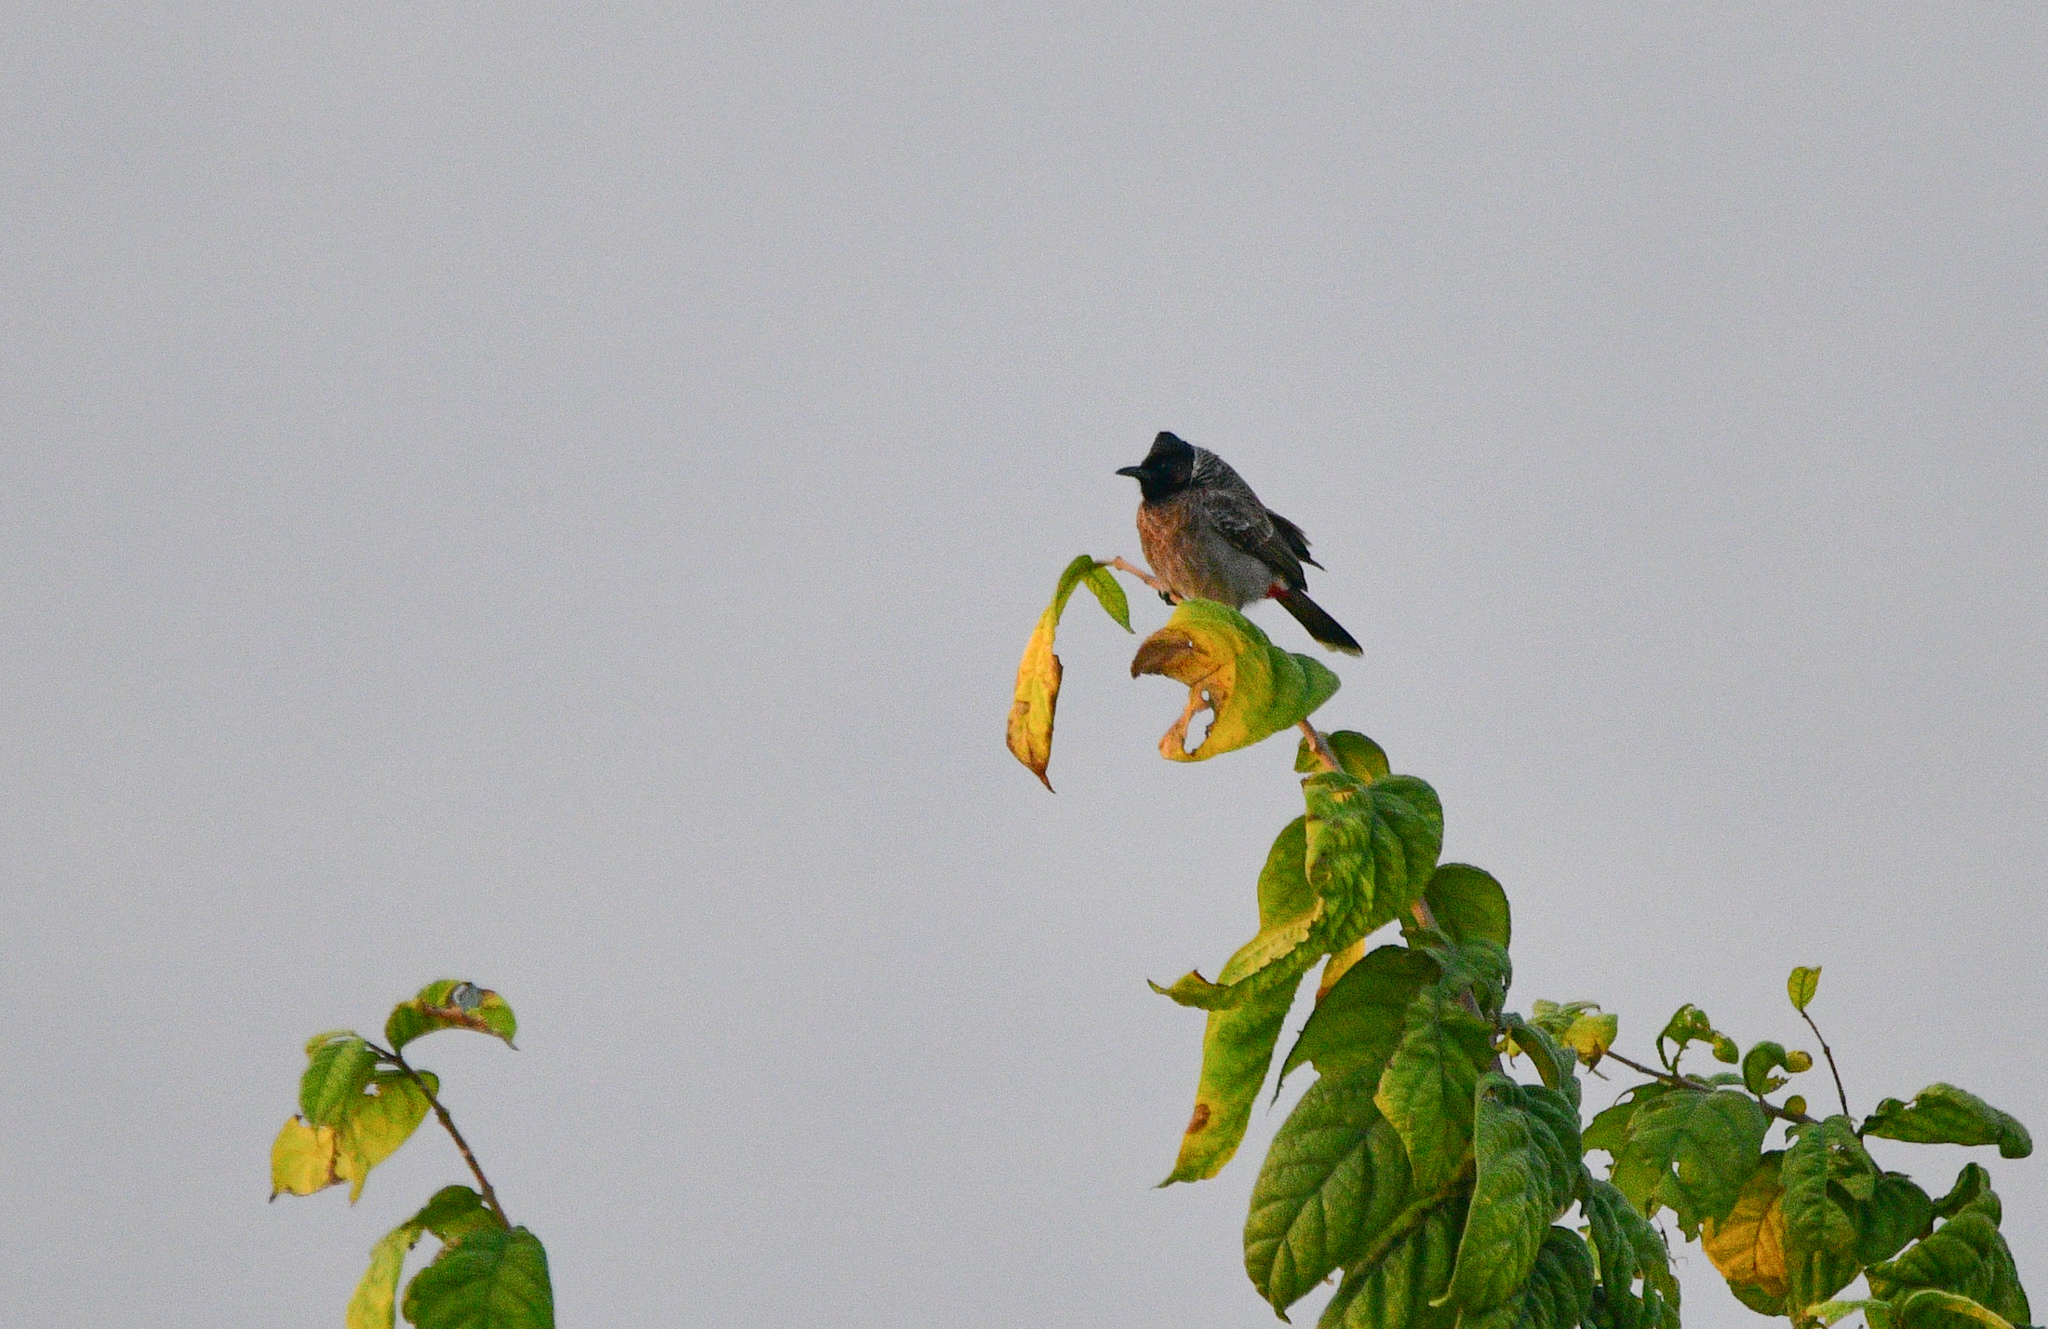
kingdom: Animalia
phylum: Chordata
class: Aves
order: Passeriformes
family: Pycnonotidae
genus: Pycnonotus
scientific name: Pycnonotus cafer
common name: Red-vented bulbul
